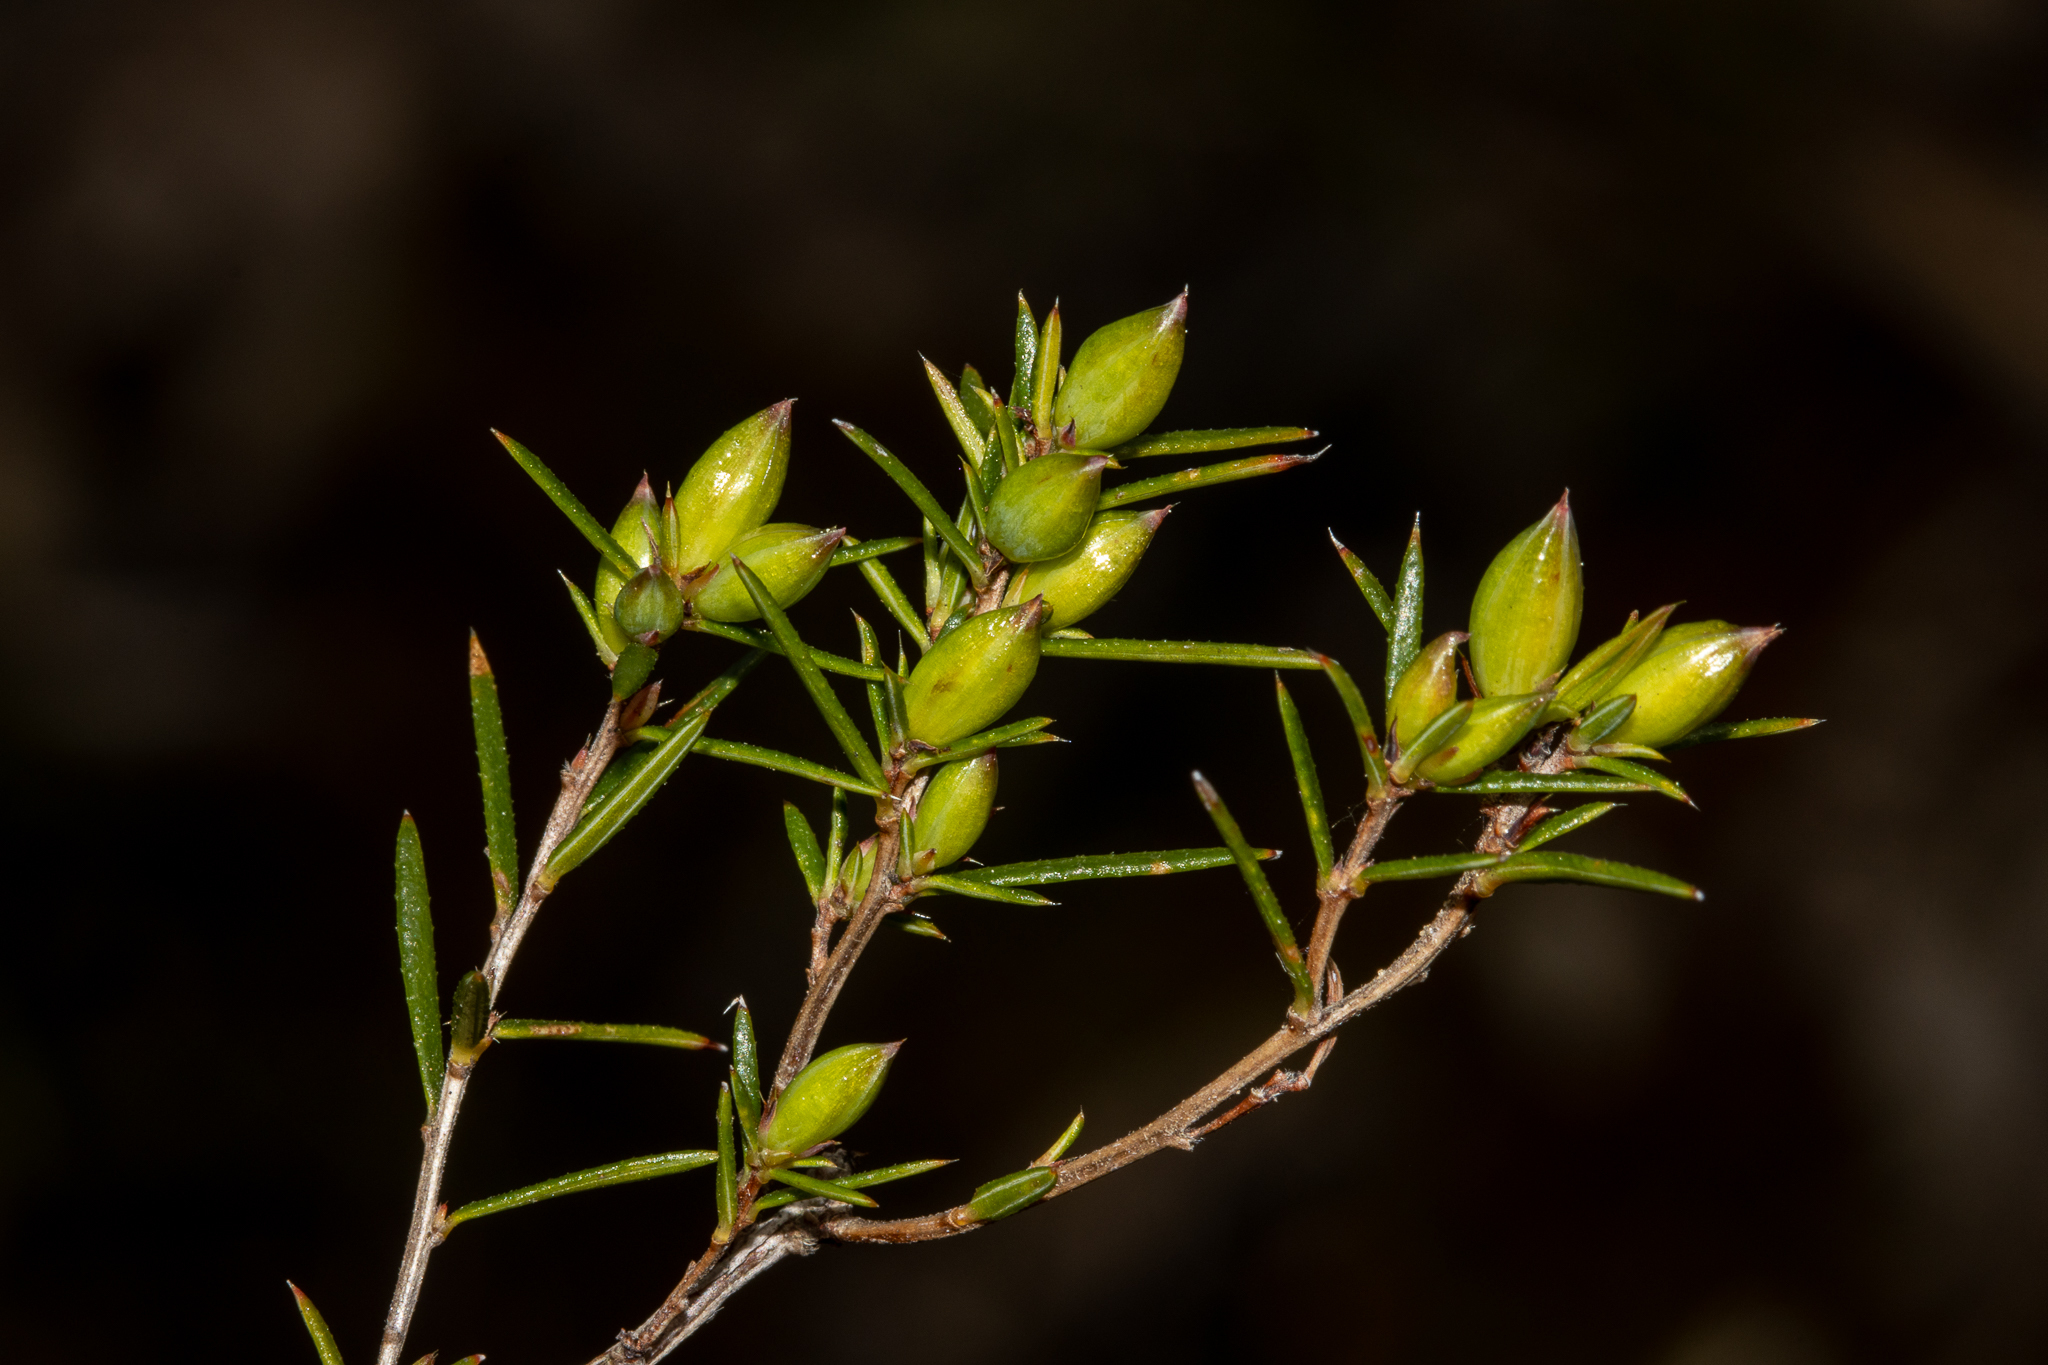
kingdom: Plantae
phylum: Tracheophyta
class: Magnoliopsida
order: Dilleniales
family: Dilleniaceae
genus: Hibbertia
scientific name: Hibbertia exutiacies
